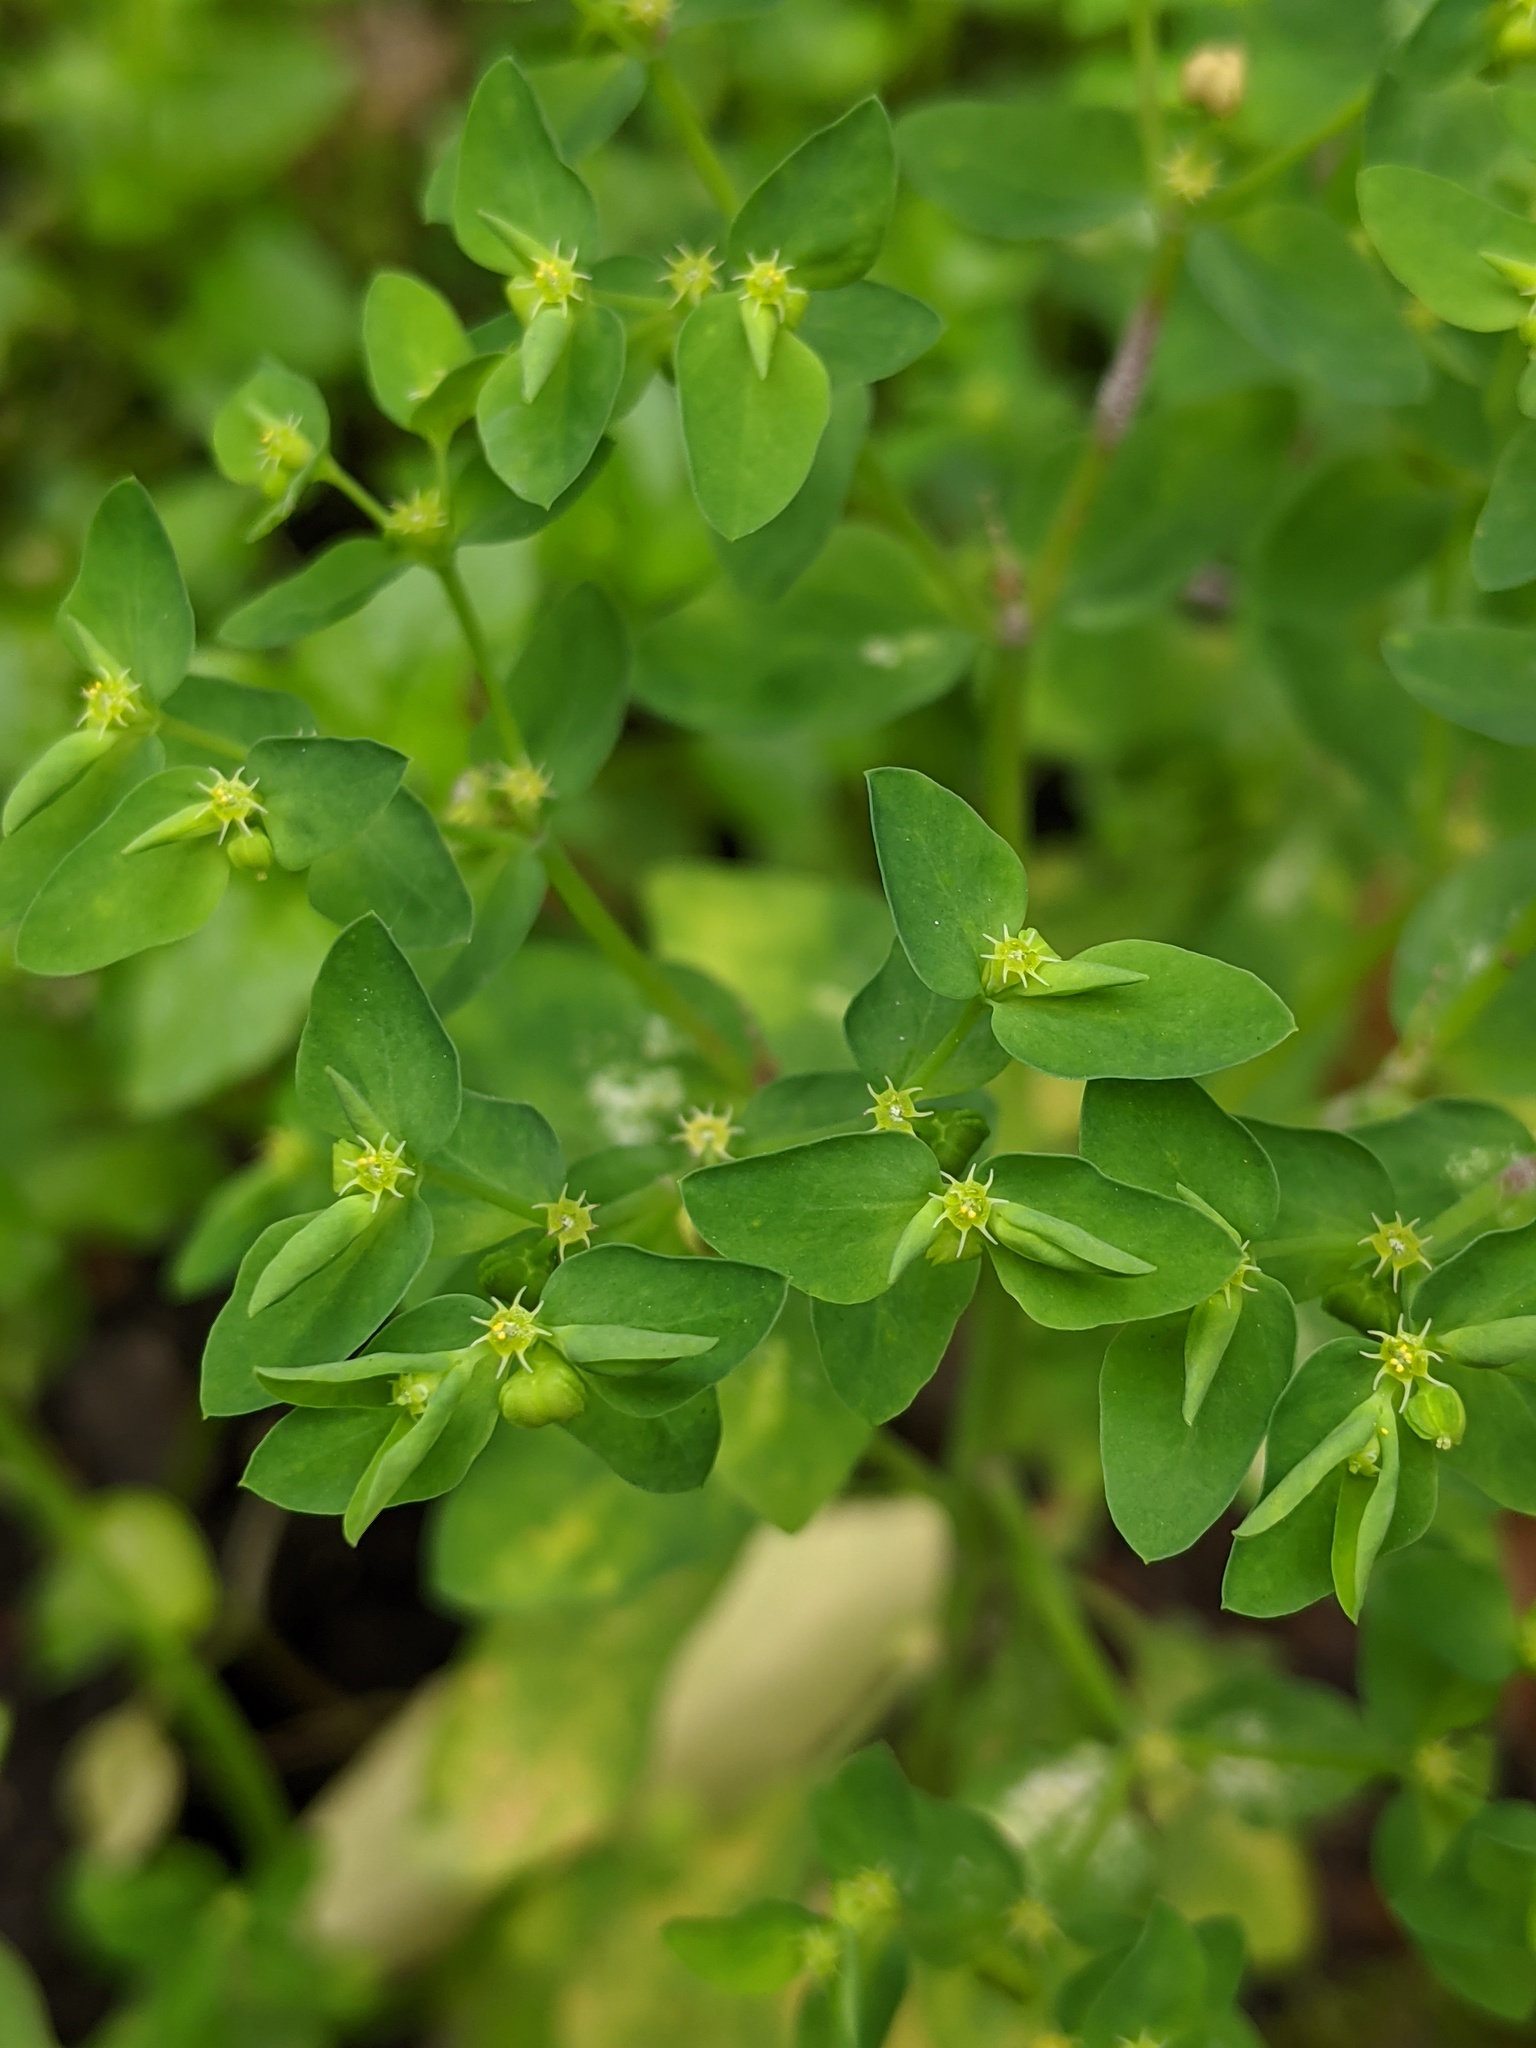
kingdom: Plantae
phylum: Tracheophyta
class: Magnoliopsida
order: Malpighiales
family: Euphorbiaceae
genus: Euphorbia
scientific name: Euphorbia peplus
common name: Petty spurge
